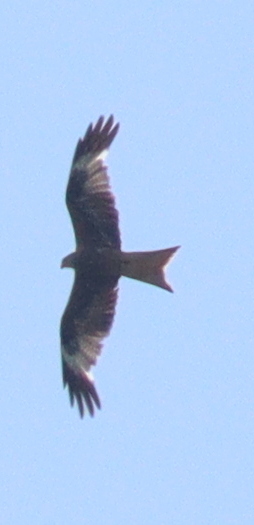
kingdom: Animalia
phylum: Chordata
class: Aves
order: Accipitriformes
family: Accipitridae
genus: Milvus
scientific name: Milvus milvus
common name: Red kite
